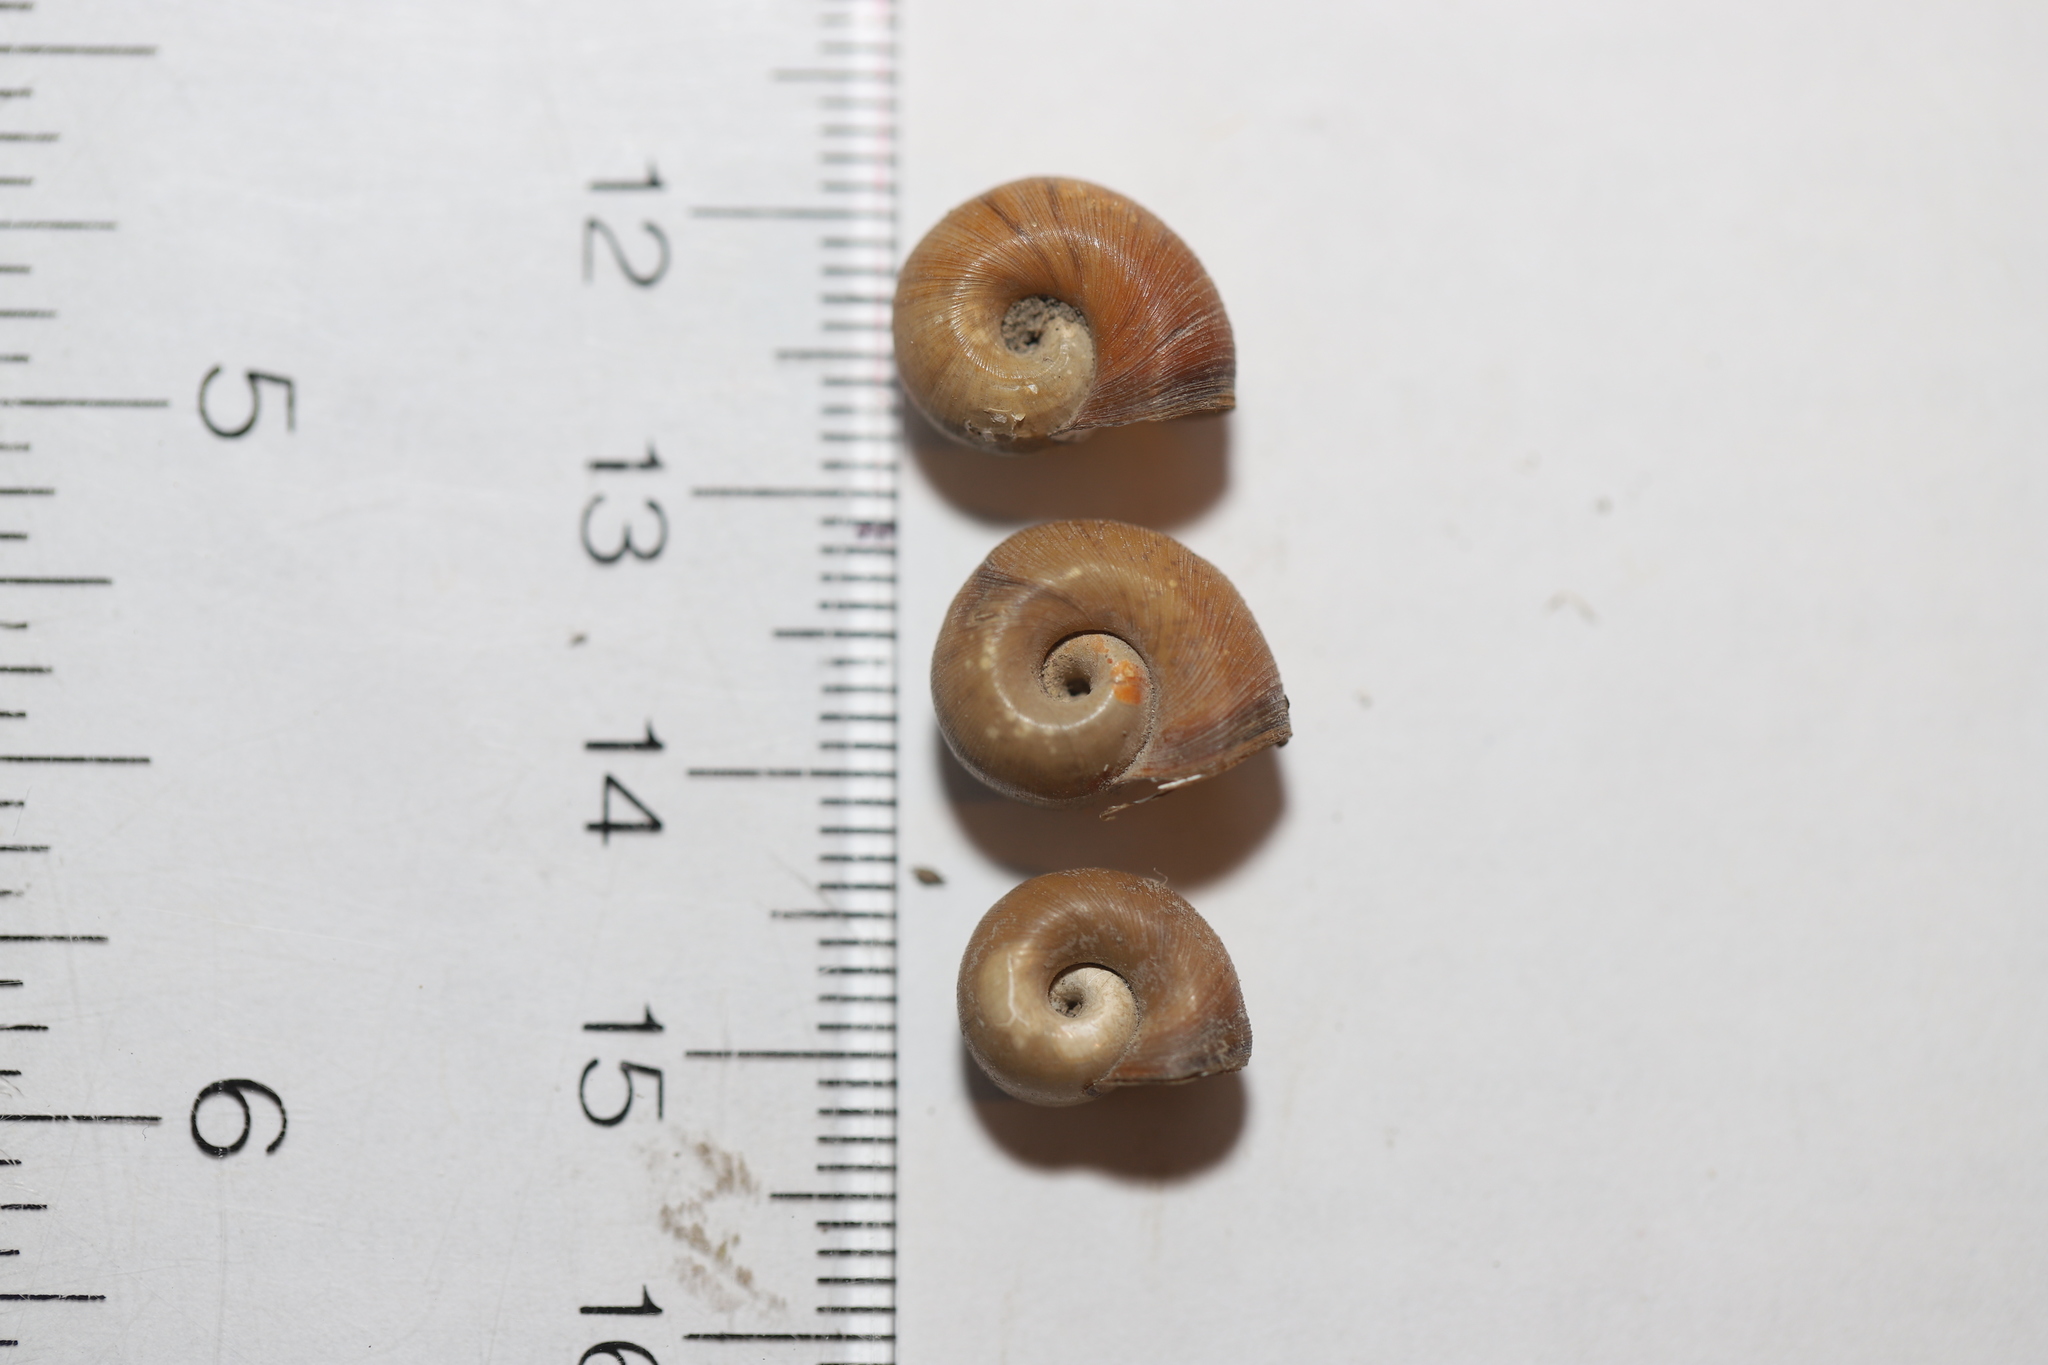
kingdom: Animalia
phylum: Mollusca
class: Gastropoda
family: Planorbidae
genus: Planorbella
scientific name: Planorbella trivolvis
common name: Marsh rams-horn
